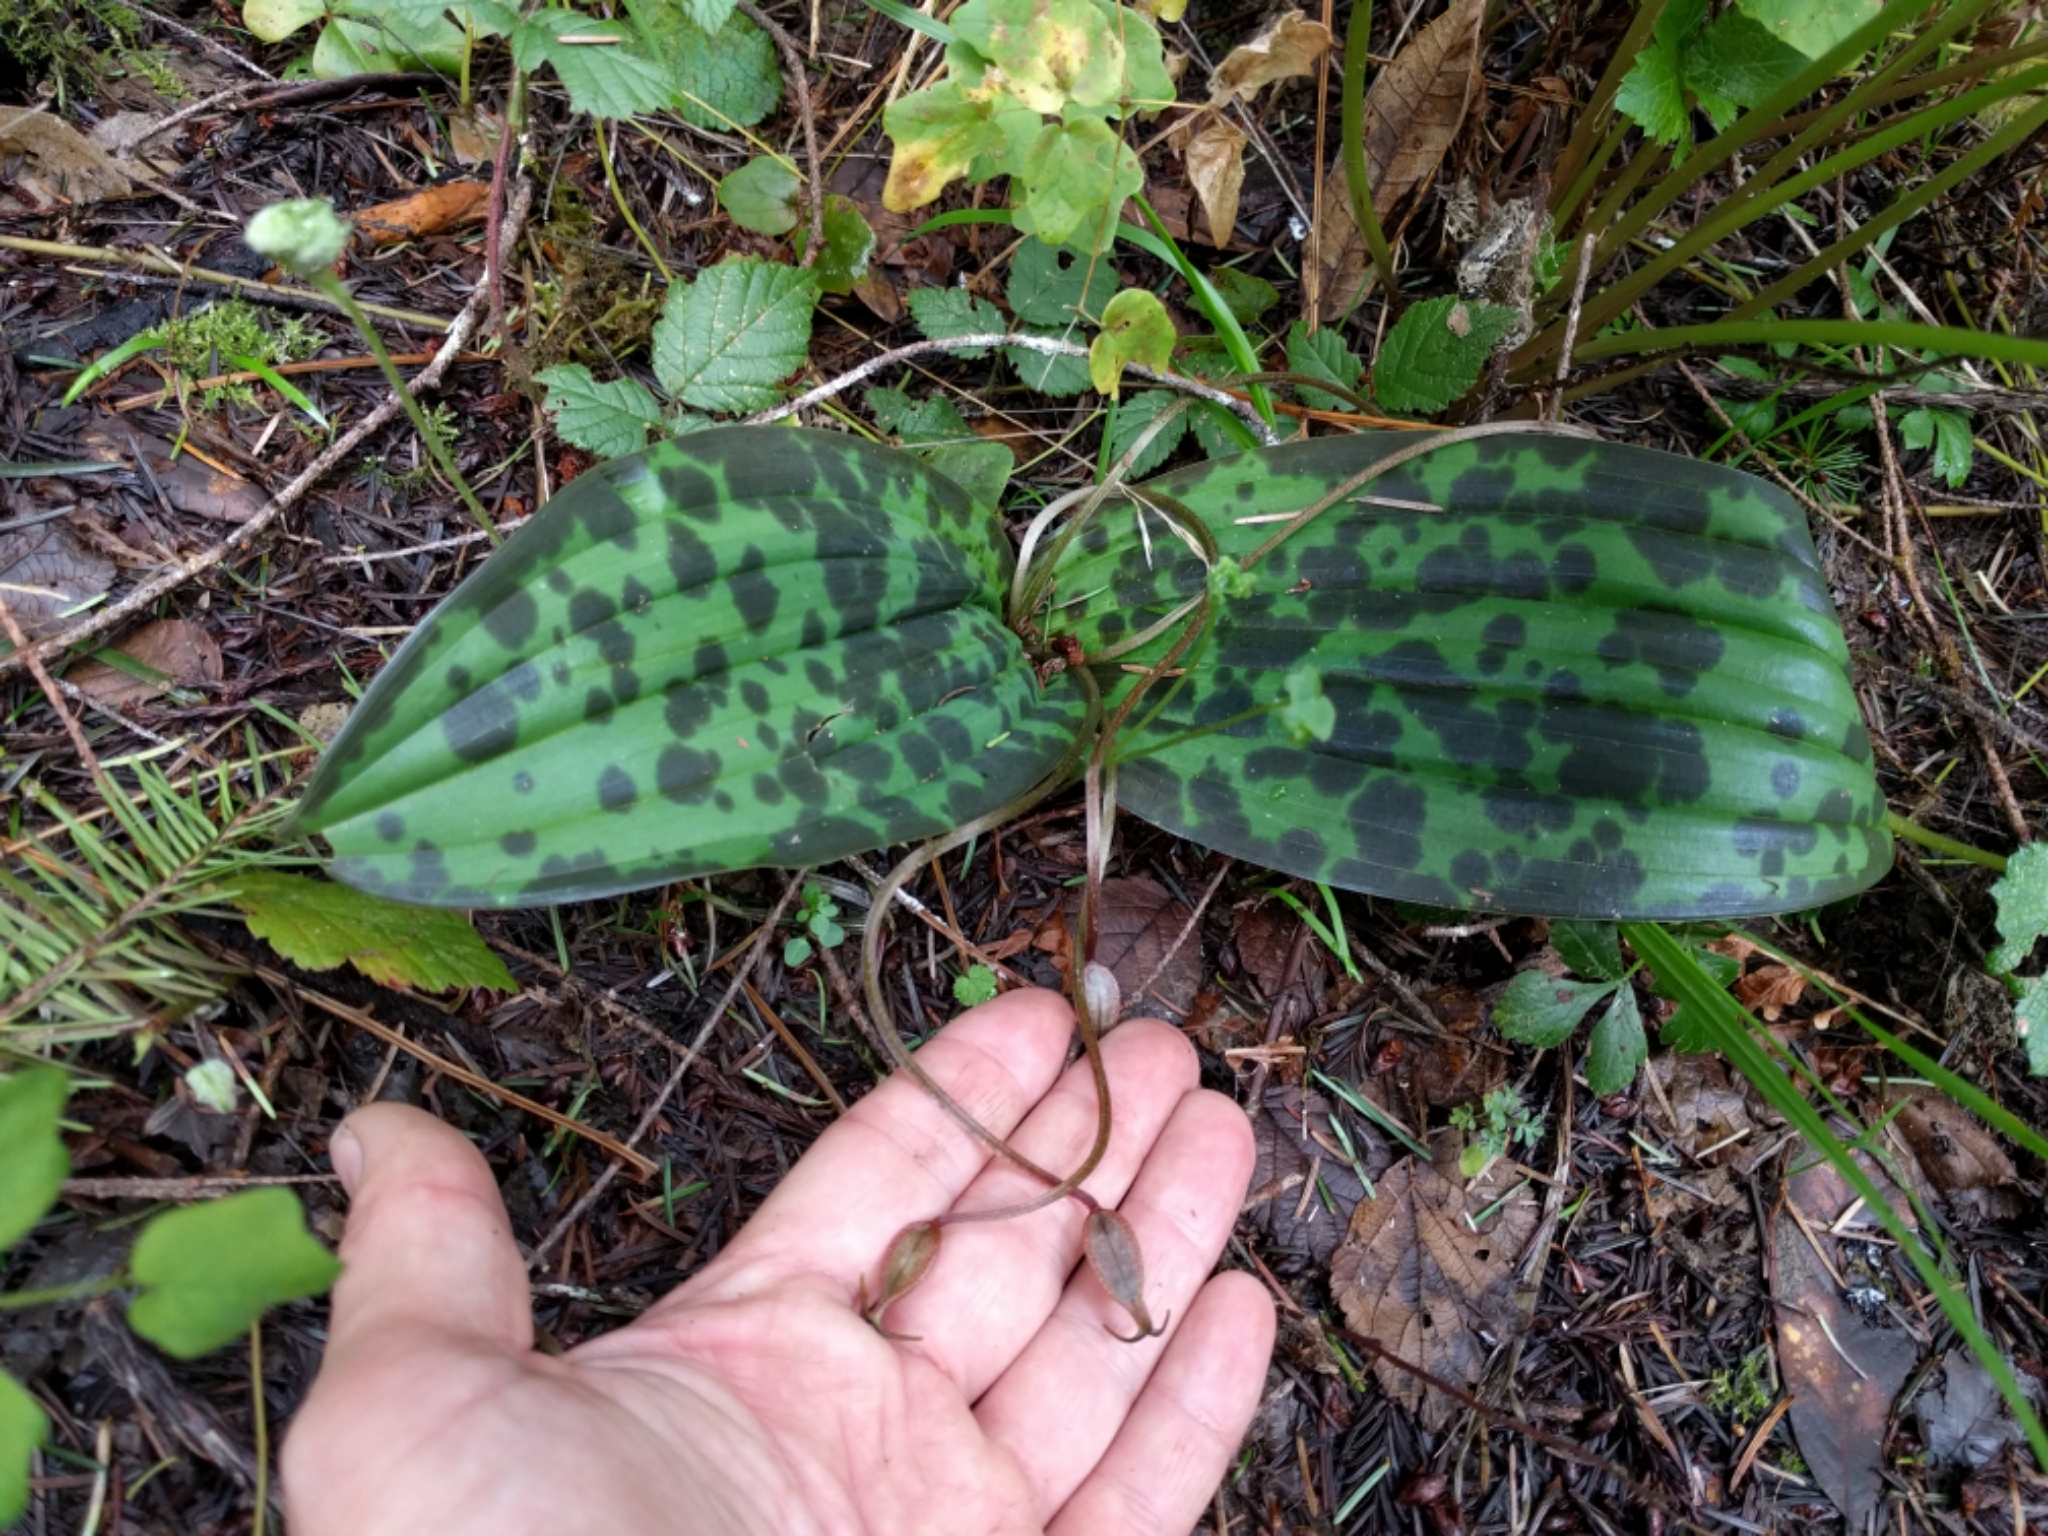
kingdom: Plantae
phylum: Tracheophyta
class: Liliopsida
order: Liliales
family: Liliaceae
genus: Scoliopus
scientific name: Scoliopus bigelovii
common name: Foetid adder's-tongue
